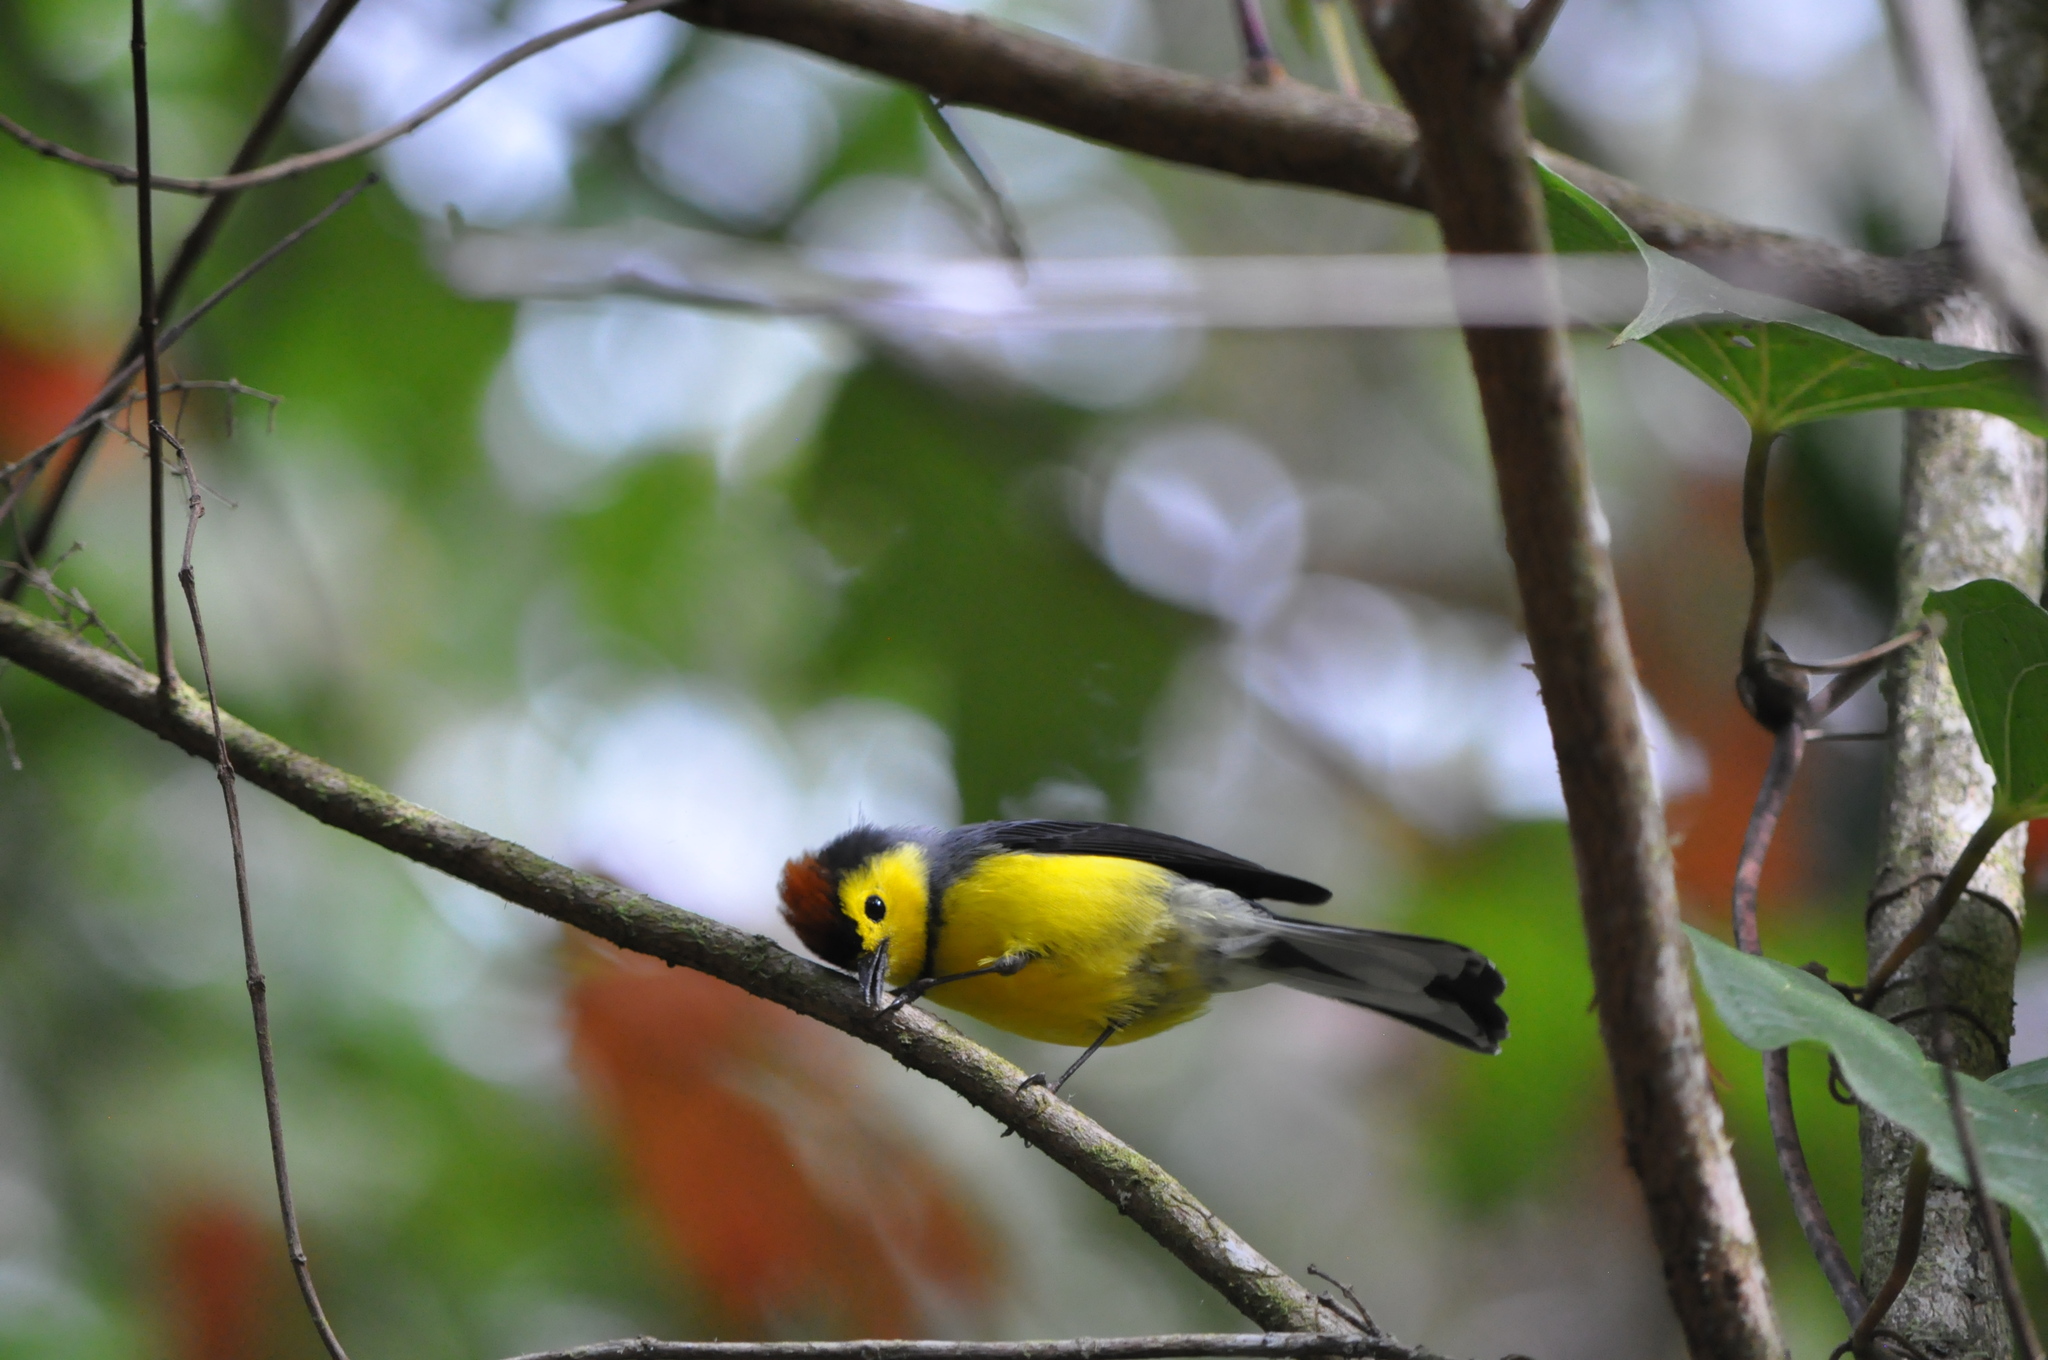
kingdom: Animalia
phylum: Chordata
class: Aves
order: Passeriformes
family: Parulidae
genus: Myioborus
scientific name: Myioborus torquatus
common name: Collared whitestart
